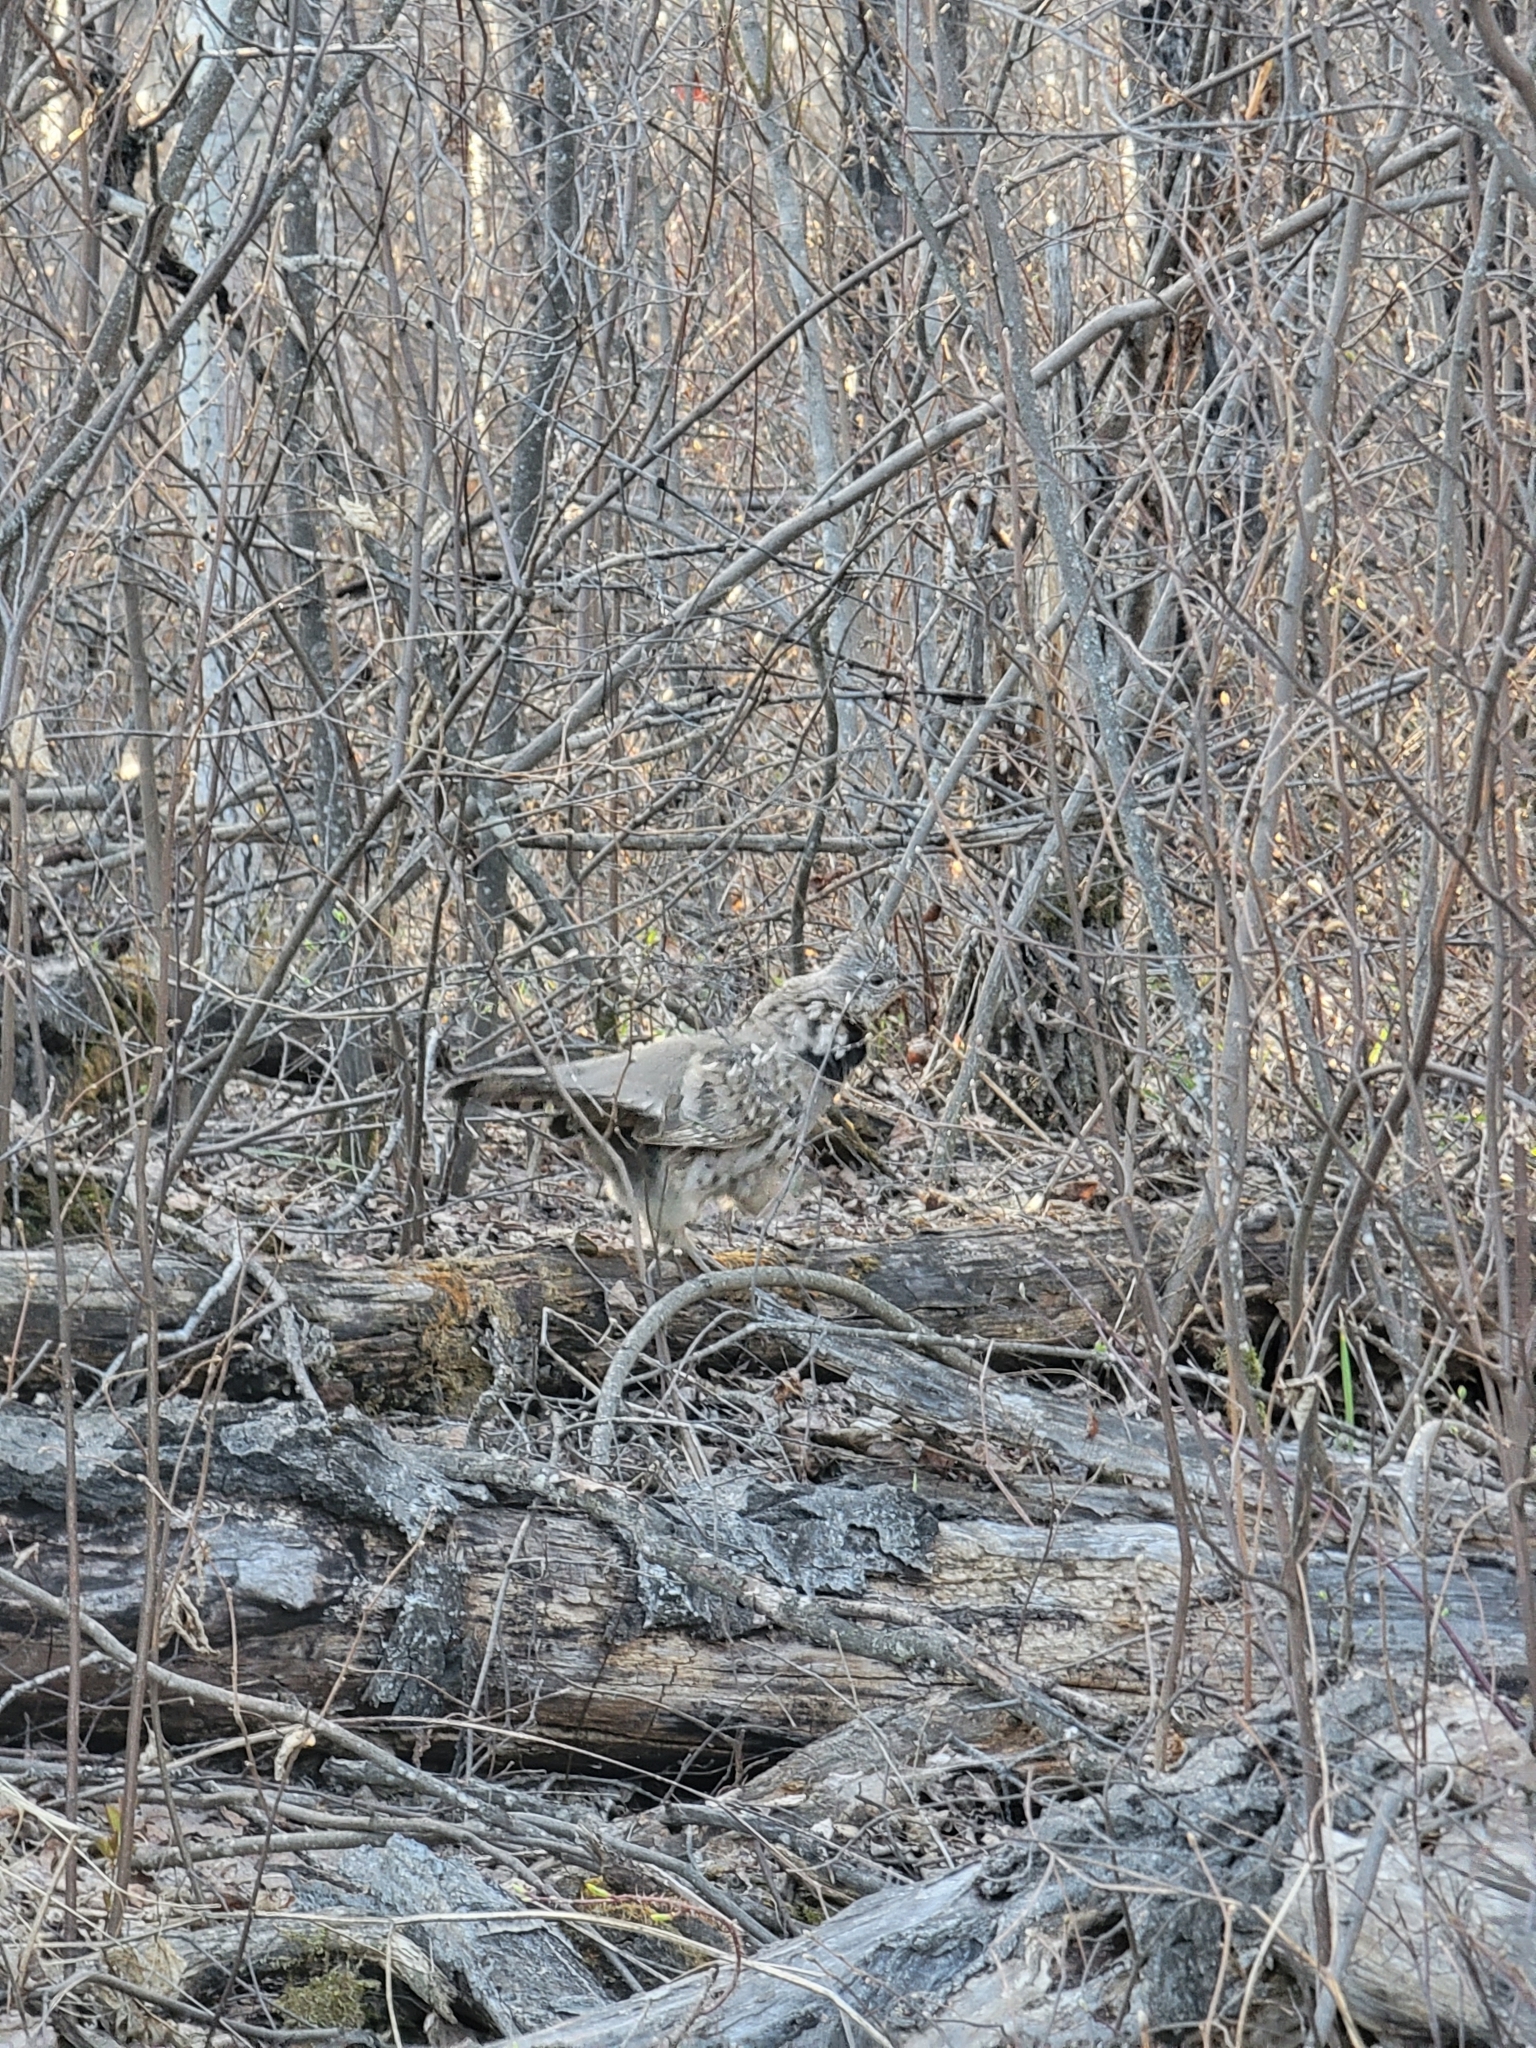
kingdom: Animalia
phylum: Chordata
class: Aves
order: Galliformes
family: Phasianidae
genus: Bonasa
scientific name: Bonasa umbellus
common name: Ruffed grouse
